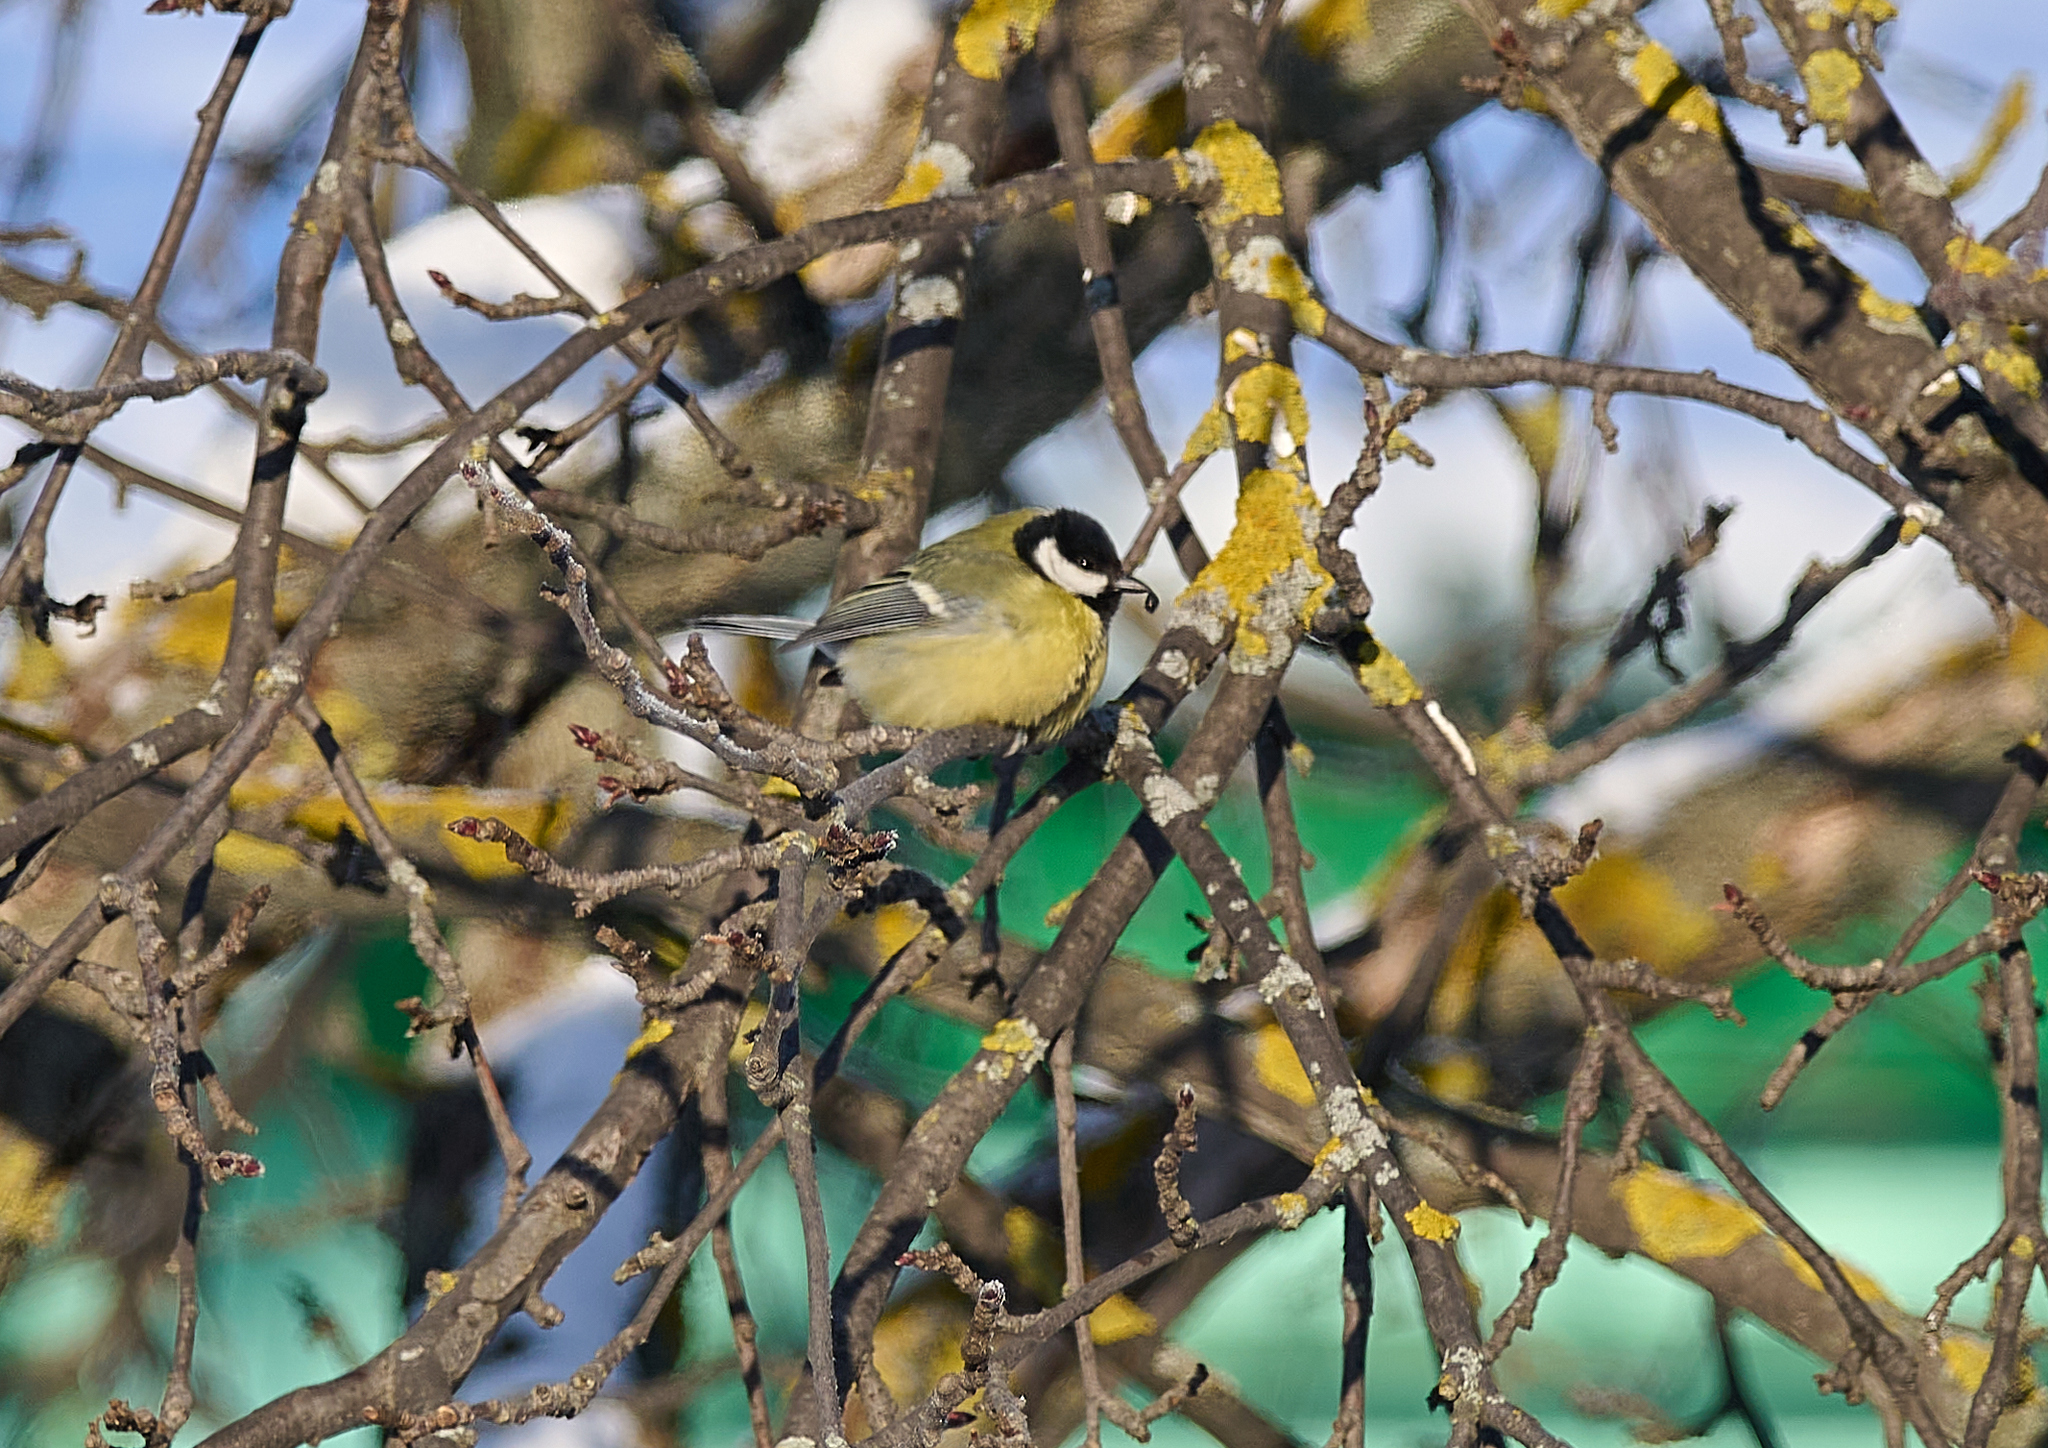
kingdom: Animalia
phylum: Chordata
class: Aves
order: Passeriformes
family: Paridae
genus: Parus
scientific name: Parus major
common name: Great tit
